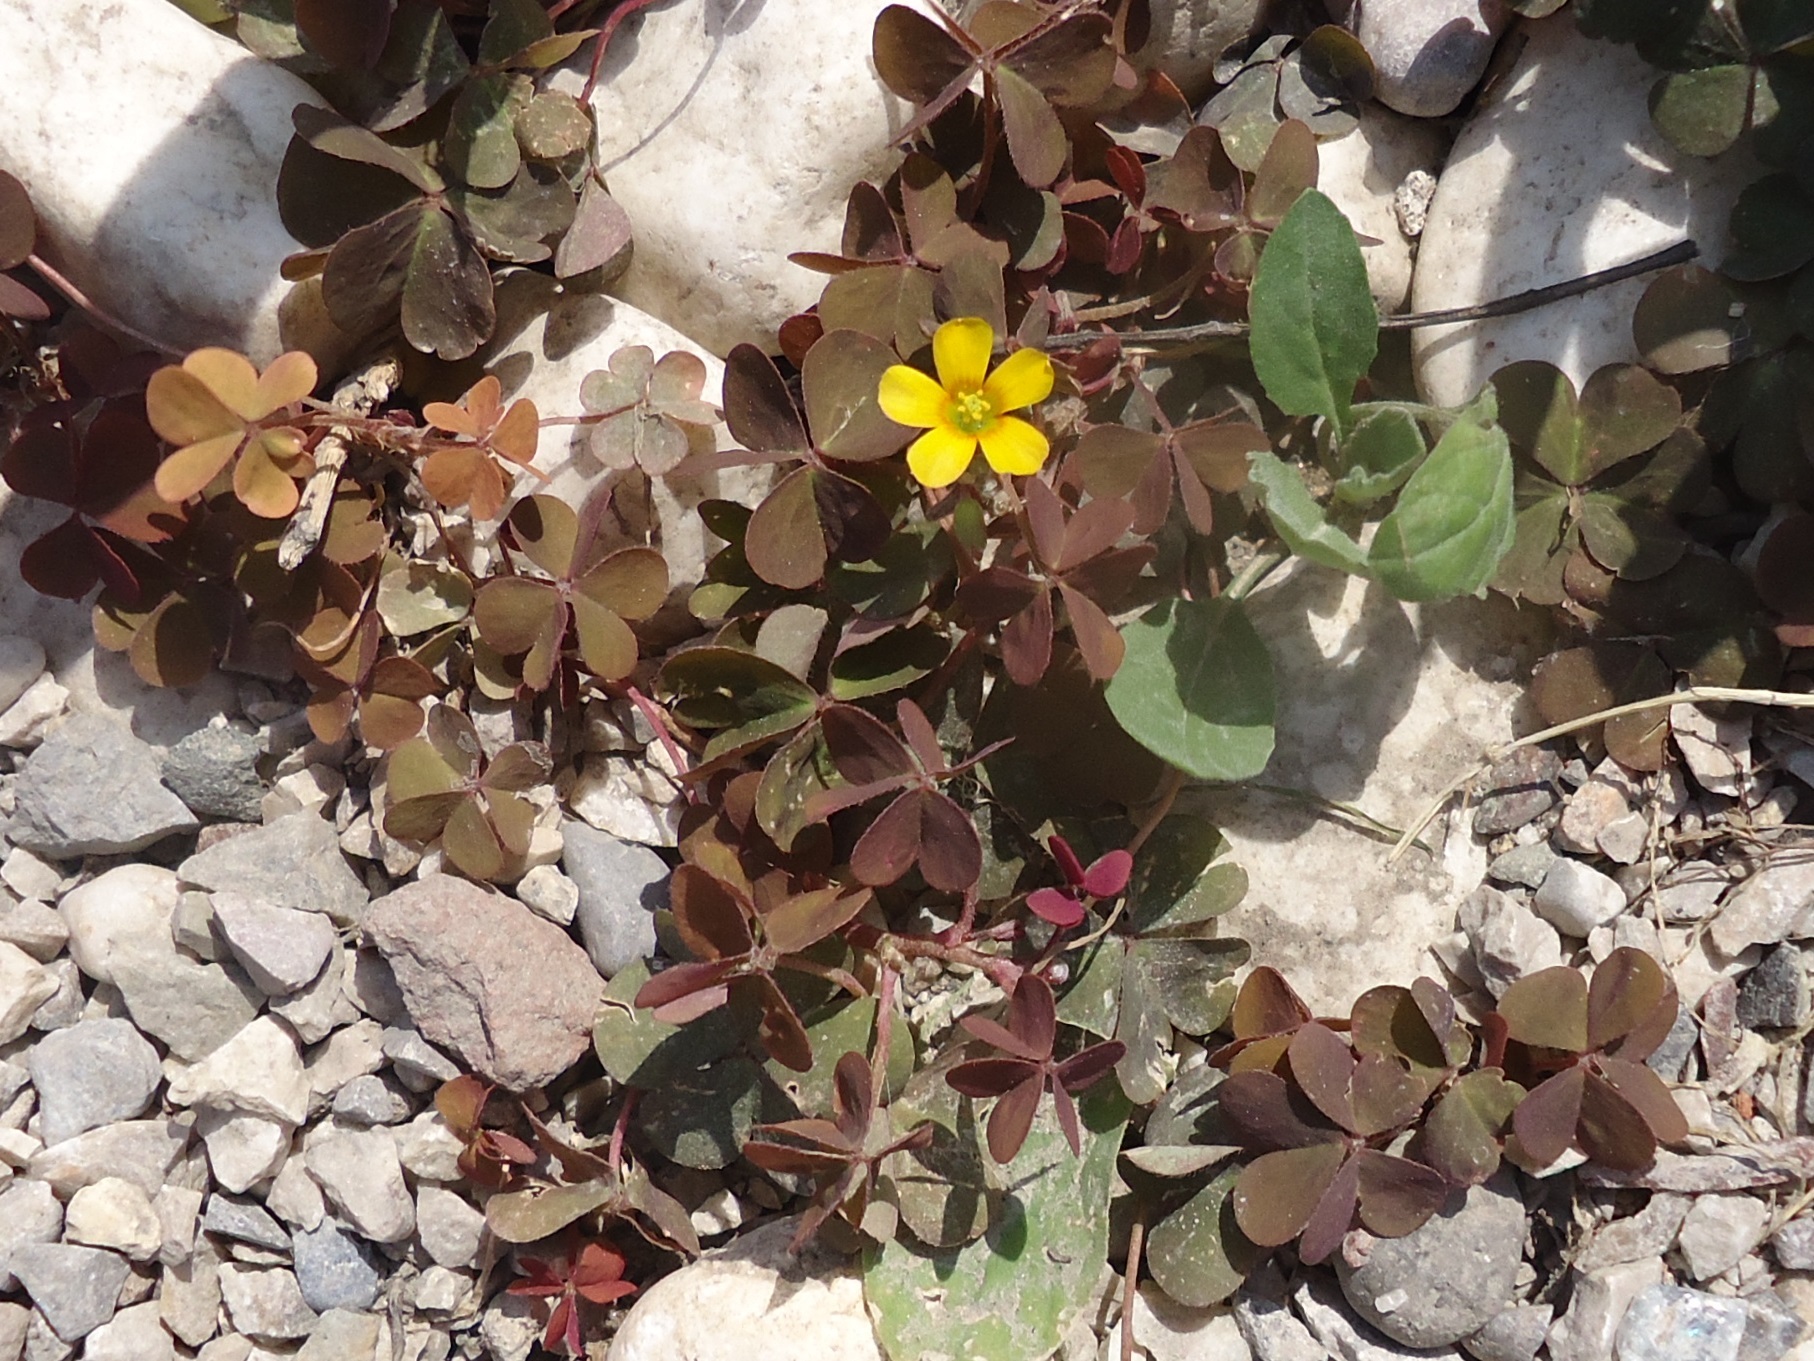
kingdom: Plantae
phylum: Tracheophyta
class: Magnoliopsida
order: Oxalidales
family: Oxalidaceae
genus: Oxalis
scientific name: Oxalis corniculata
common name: Procumbent yellow-sorrel
